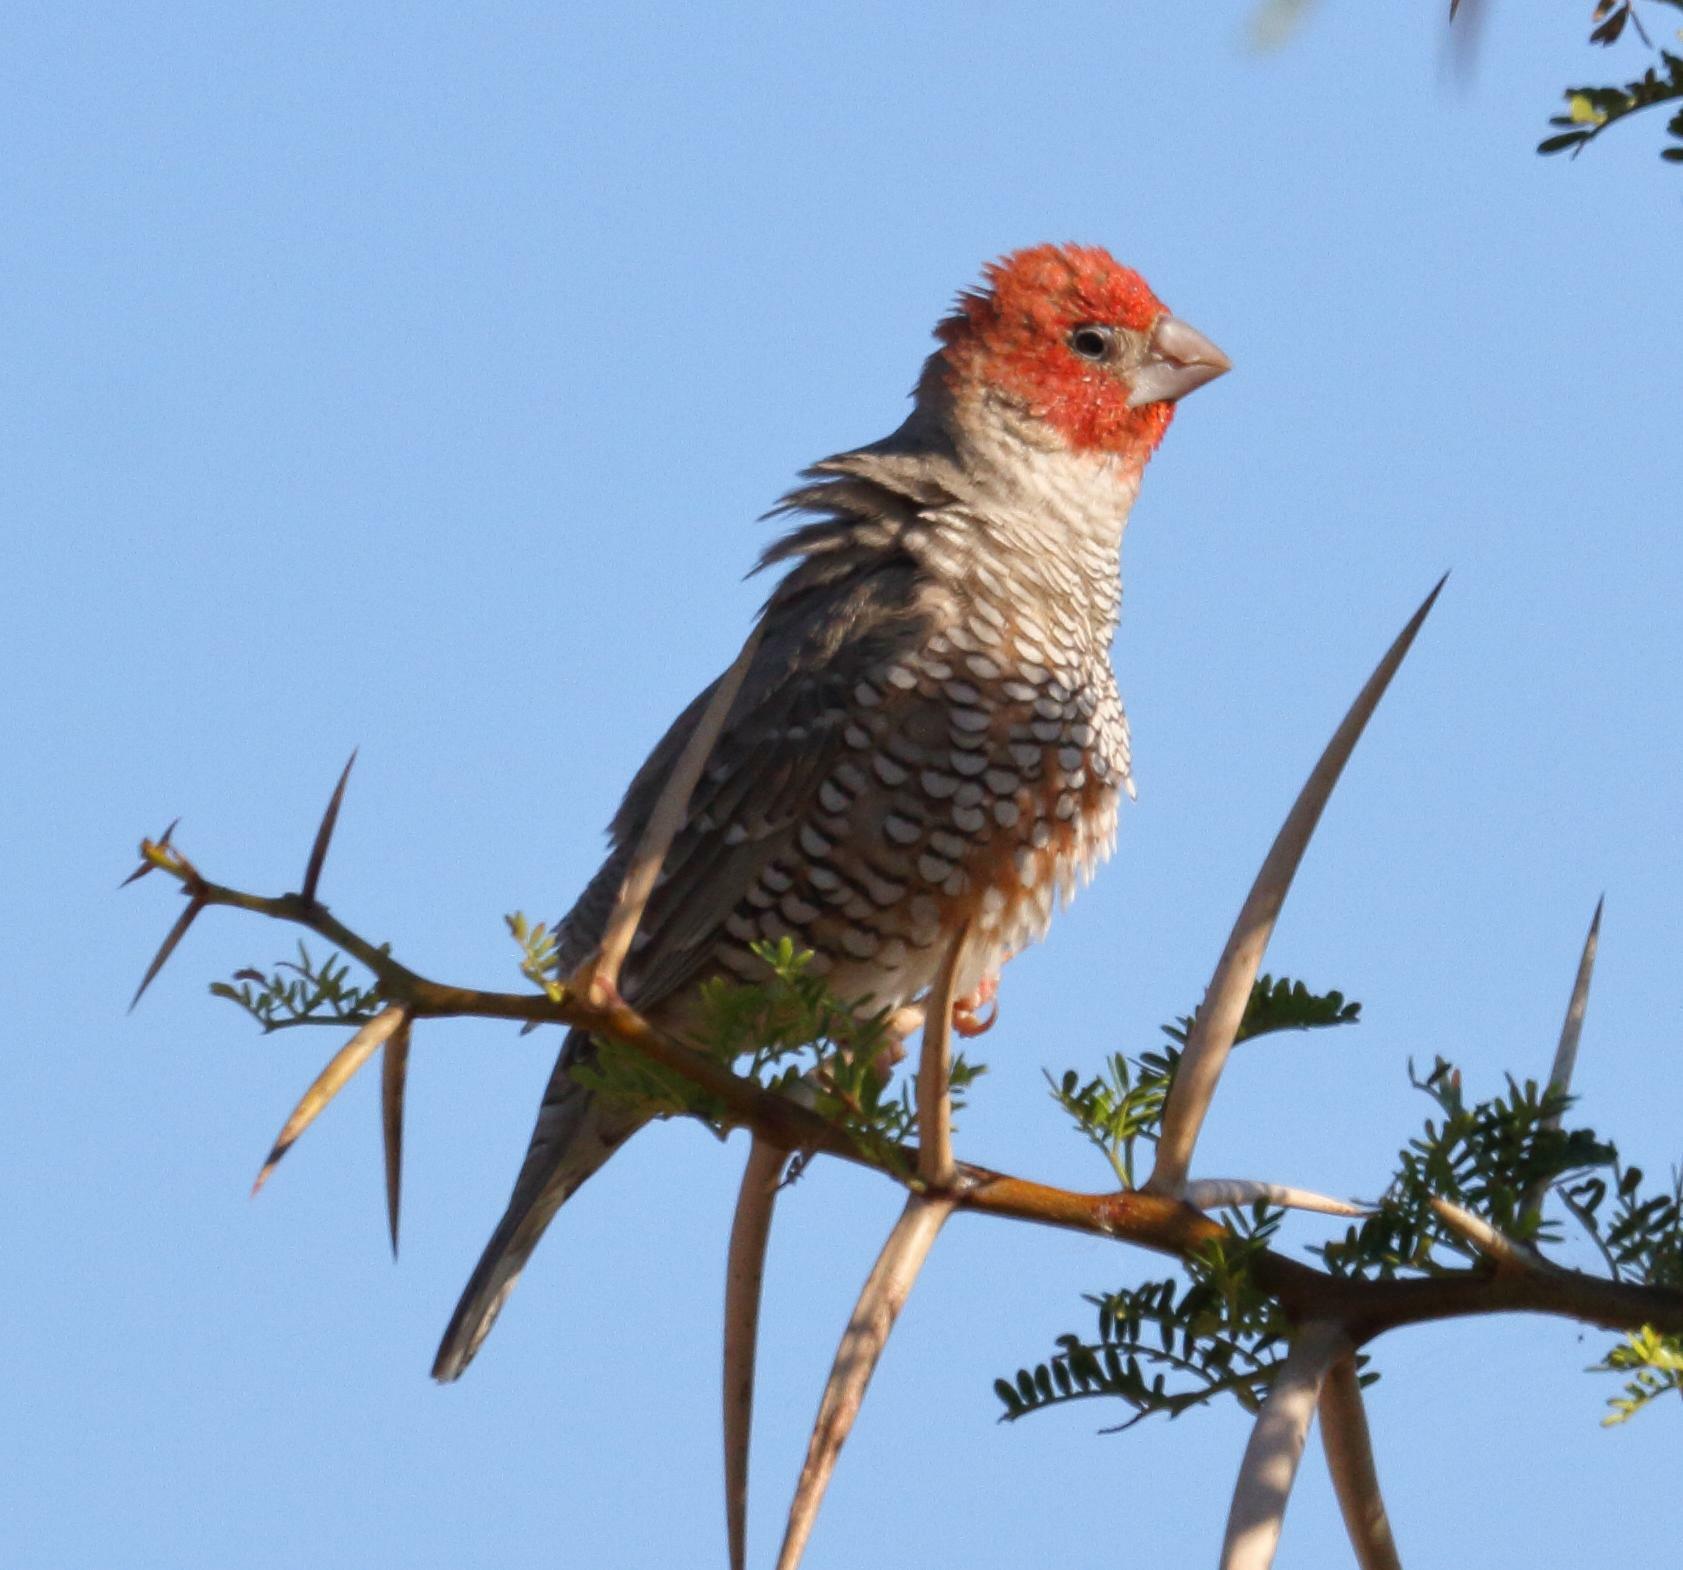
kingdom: Animalia
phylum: Chordata
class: Aves
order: Passeriformes
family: Estrildidae
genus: Amadina
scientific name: Amadina erythrocephala
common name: Red-headed finch
